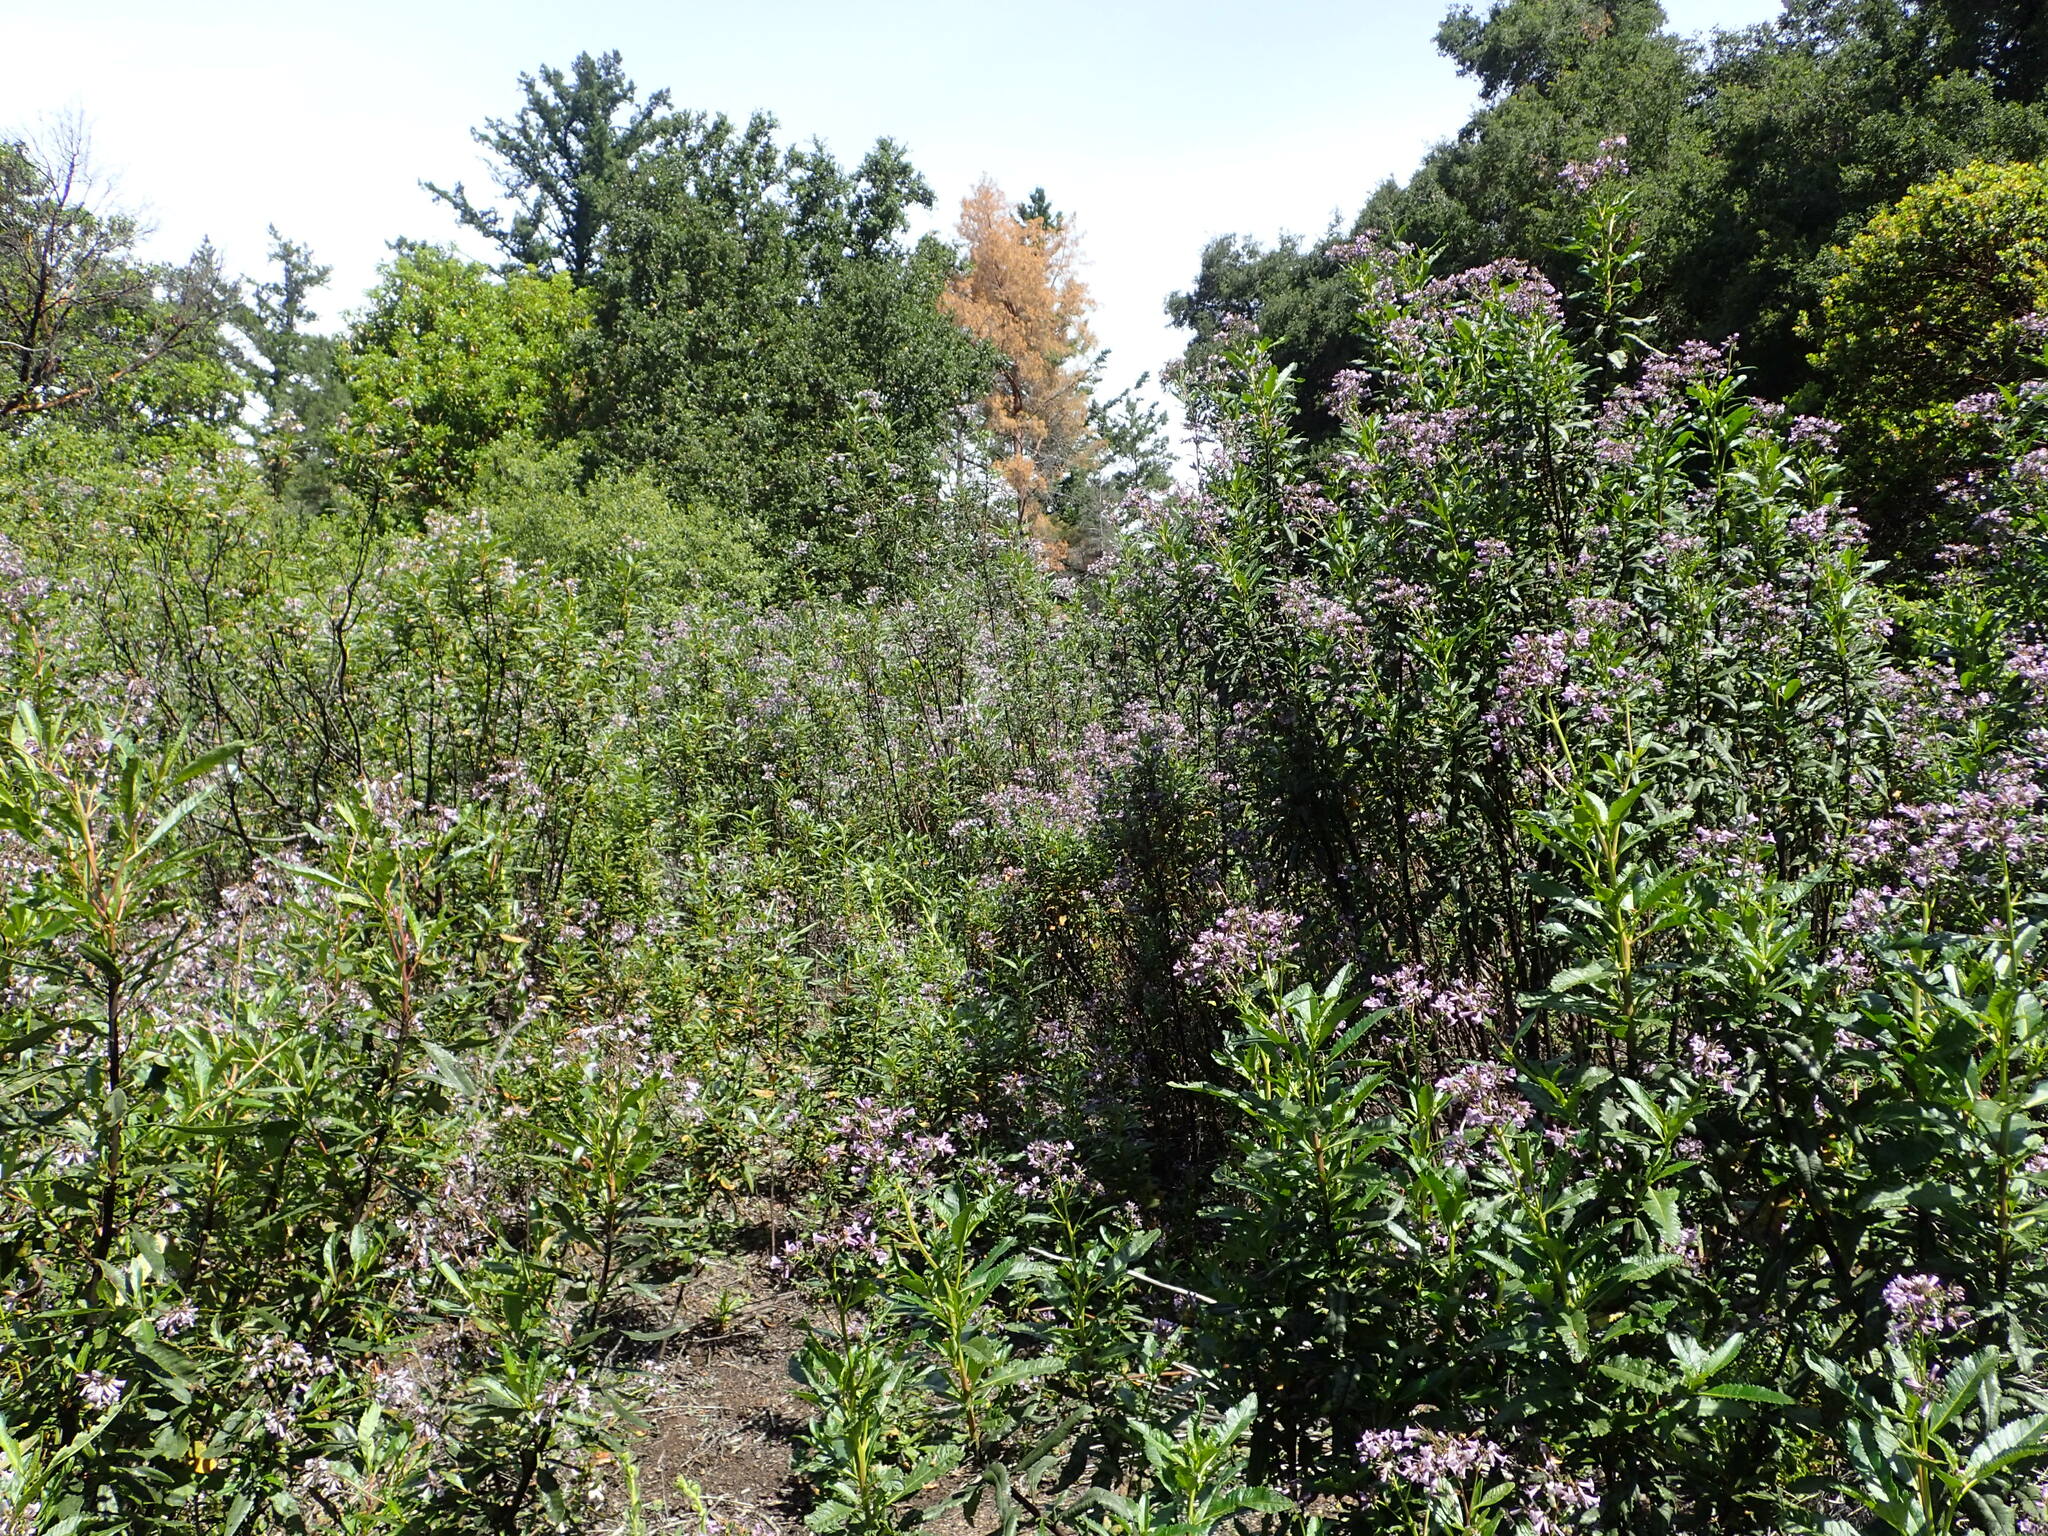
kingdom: Plantae
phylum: Tracheophyta
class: Magnoliopsida
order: Boraginales
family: Namaceae
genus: Eriodictyon
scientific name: Eriodictyon californicum
